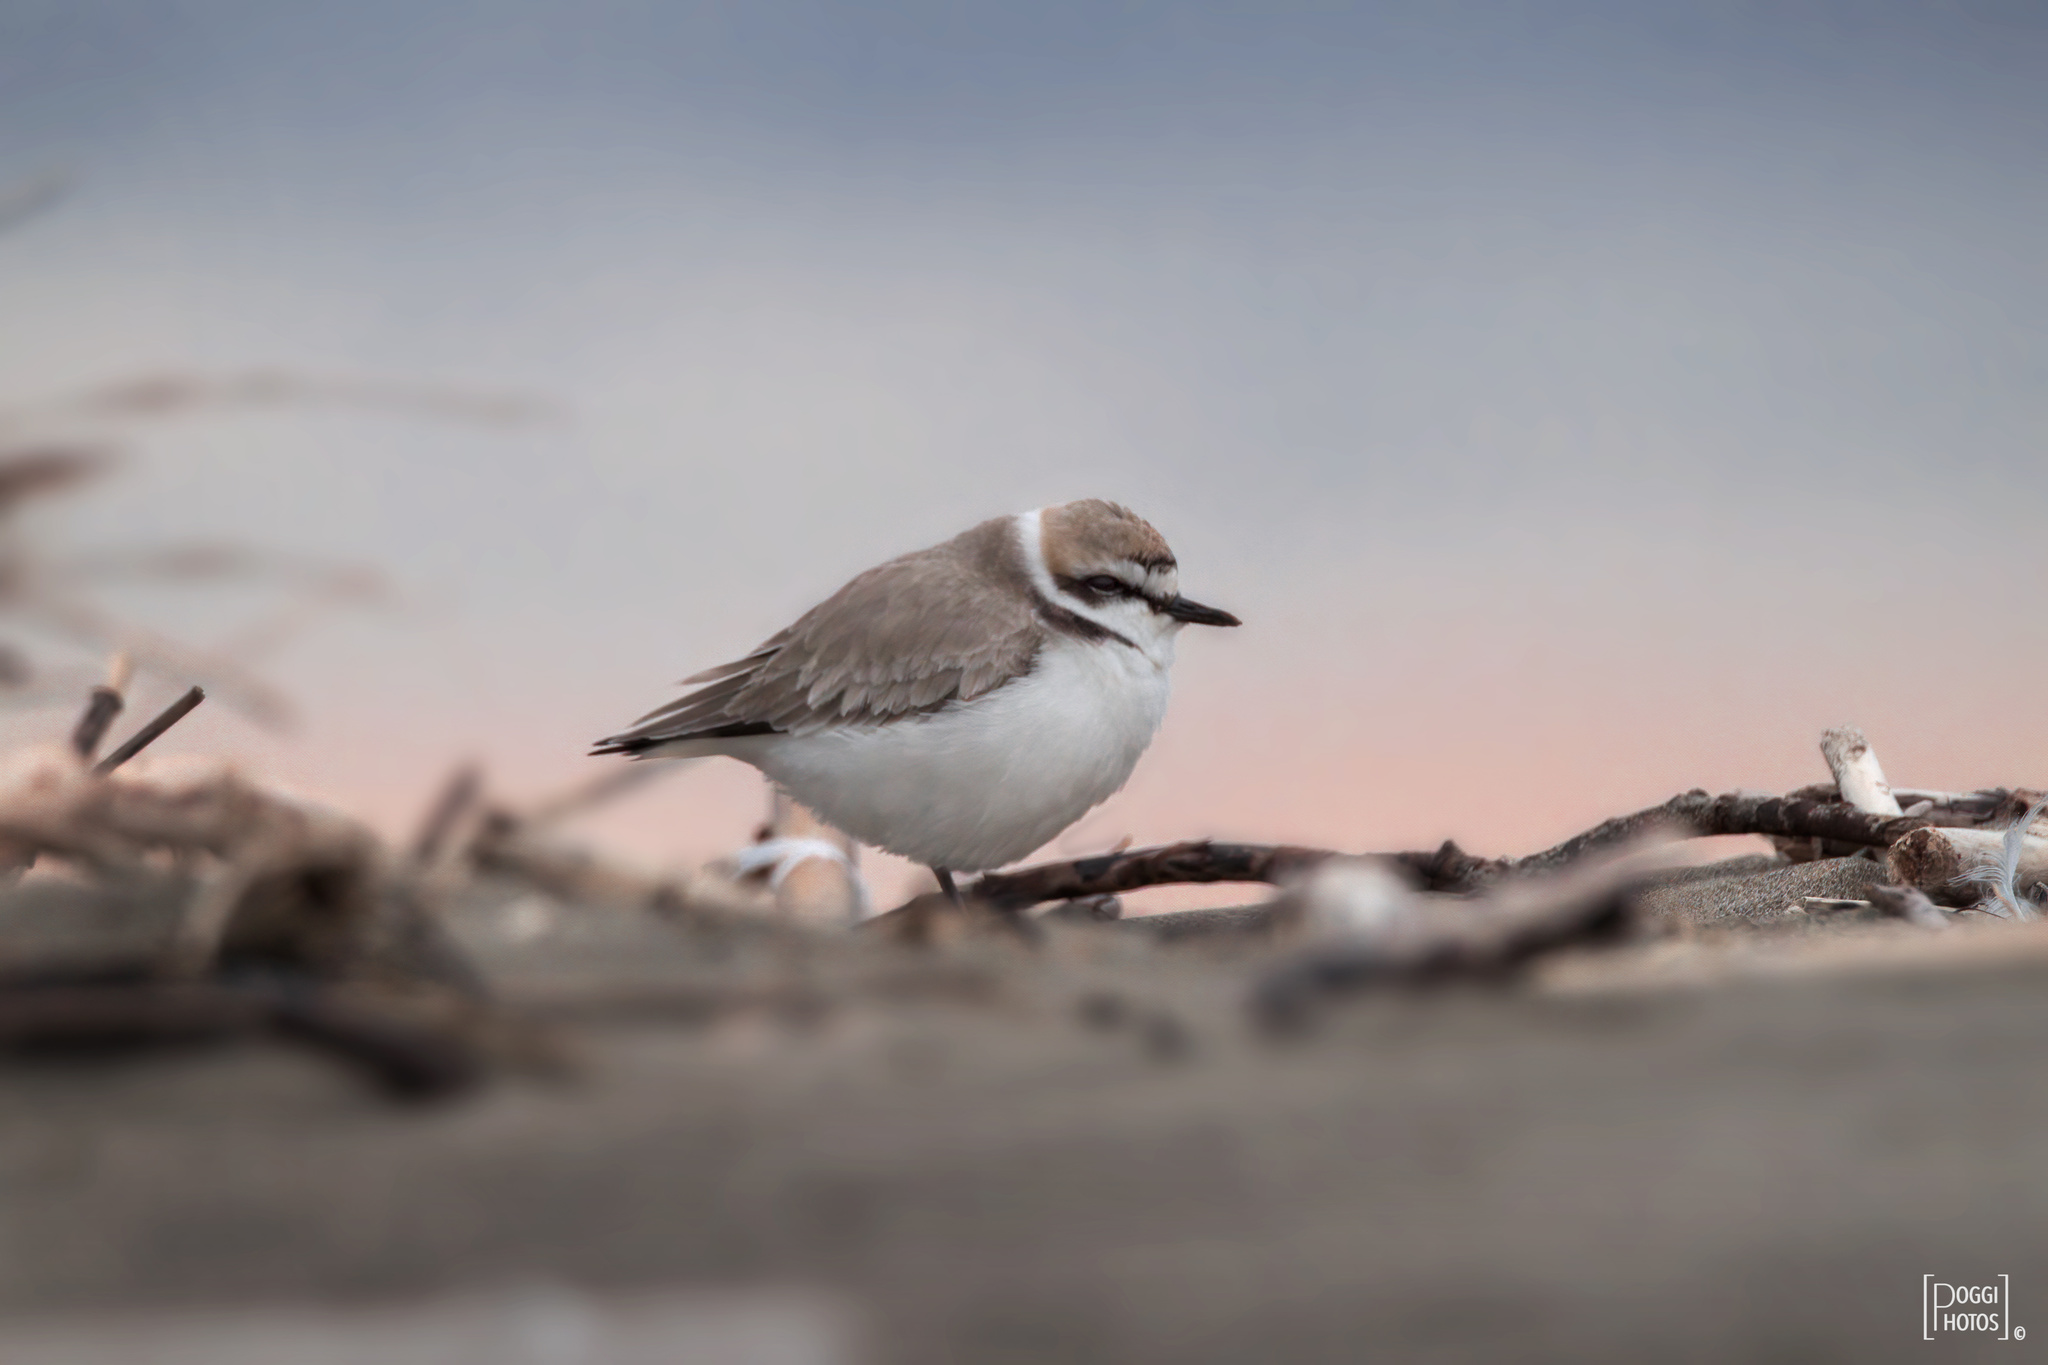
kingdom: Animalia
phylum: Chordata
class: Aves
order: Charadriiformes
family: Charadriidae
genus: Charadrius
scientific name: Charadrius alexandrinus
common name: Kentish plover
